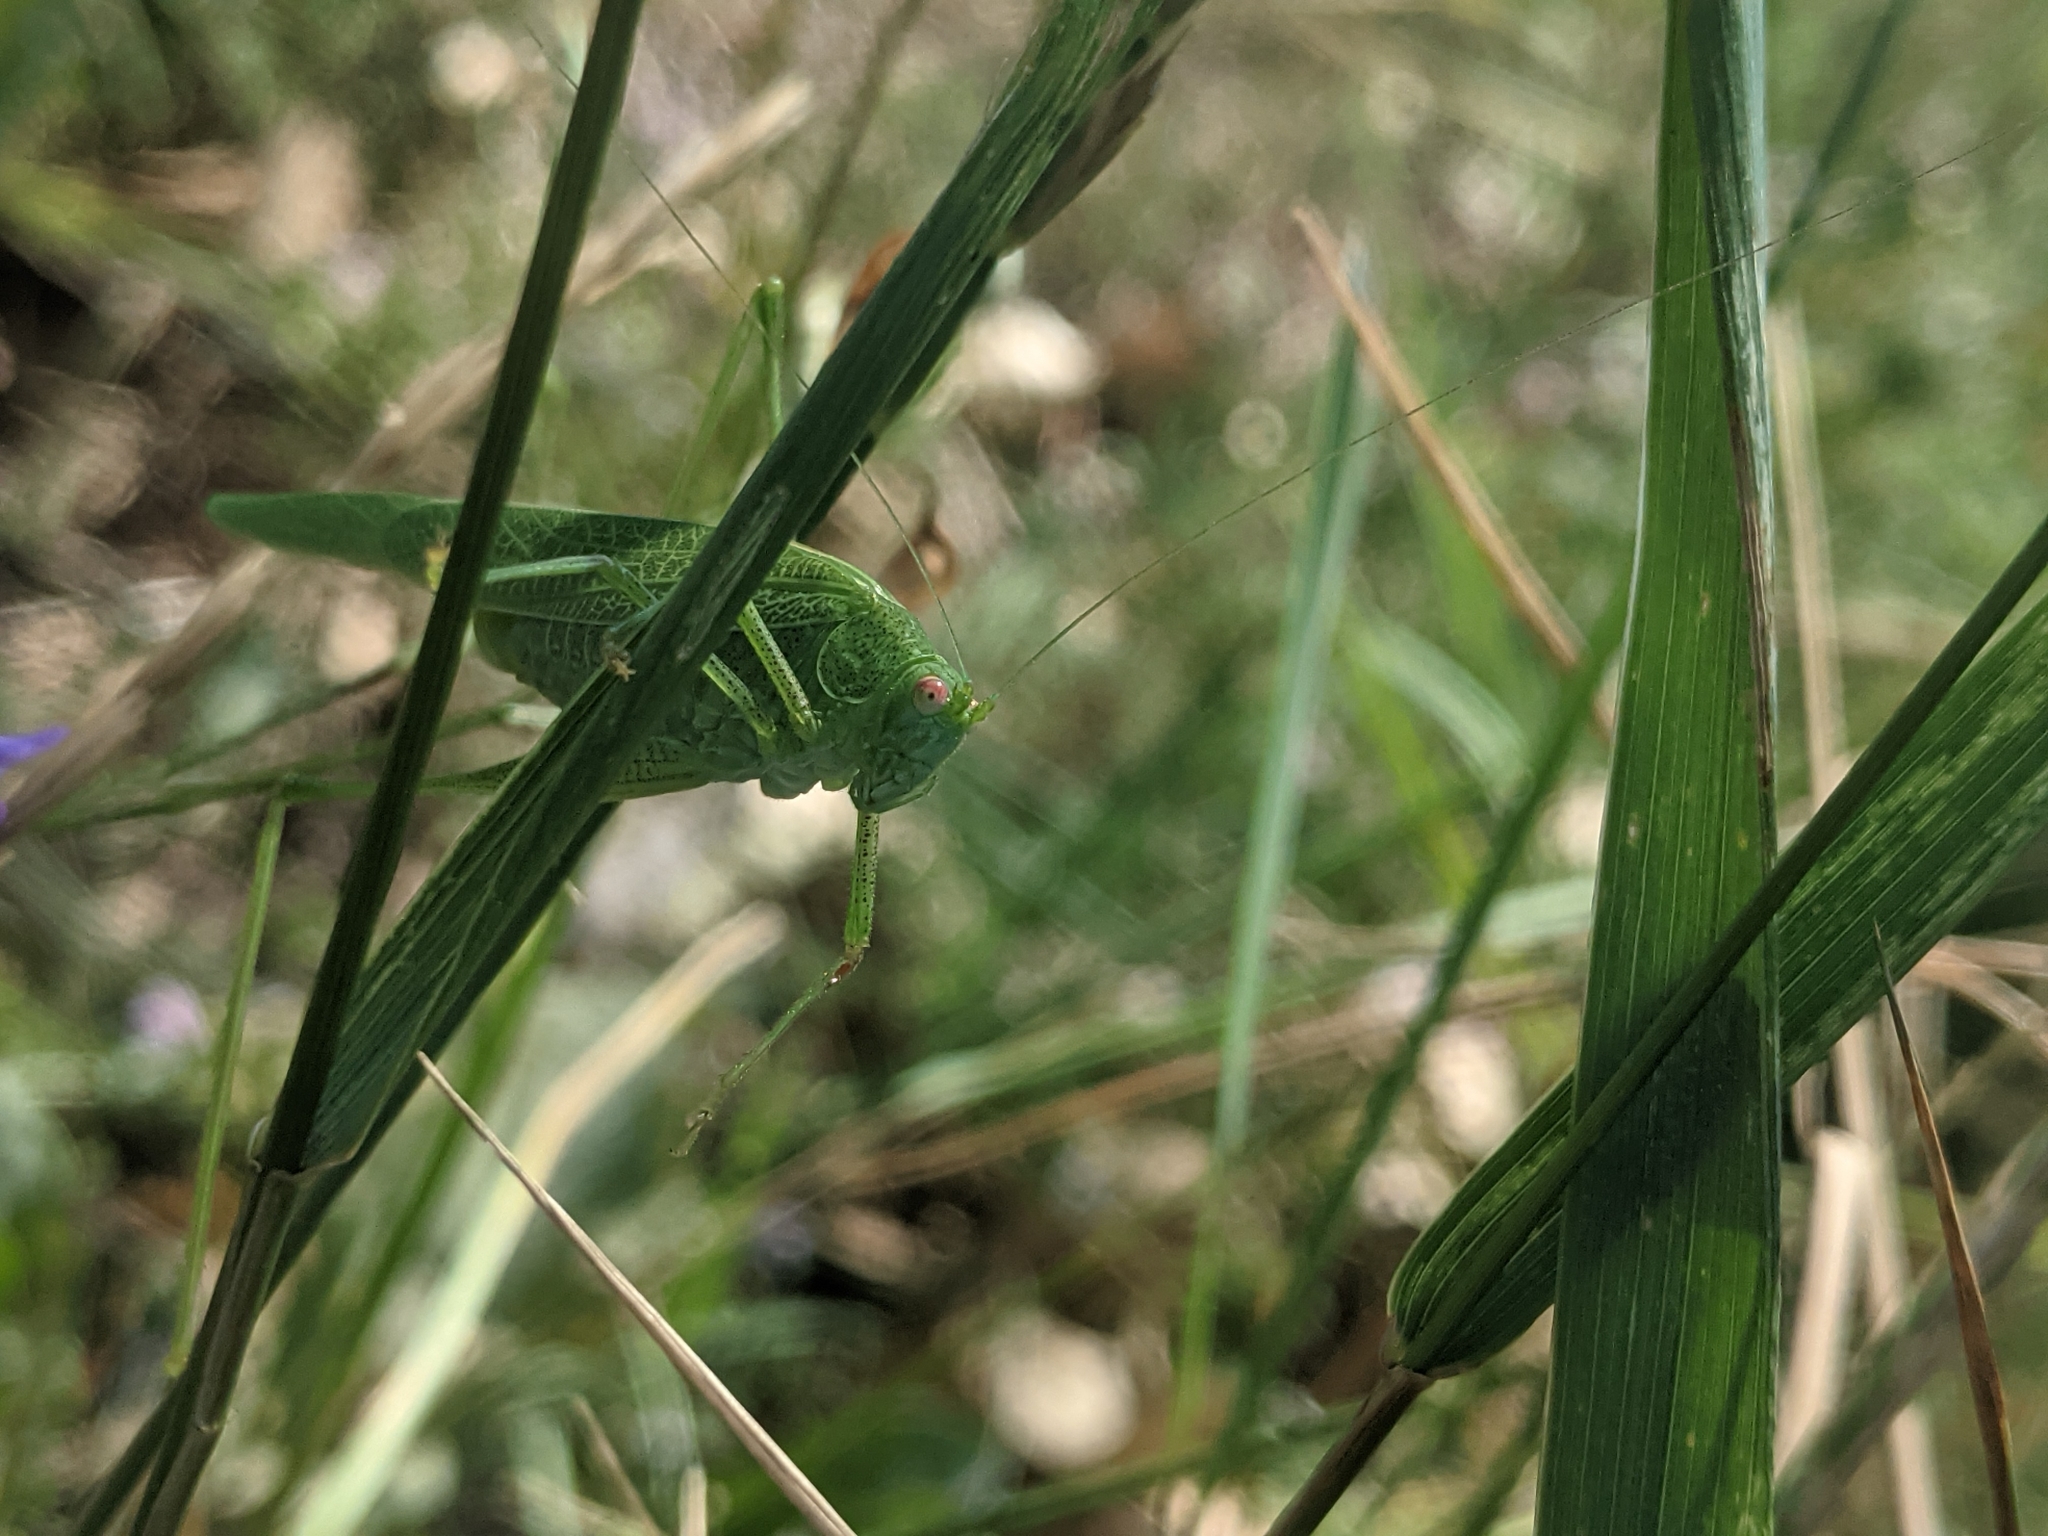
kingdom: Animalia
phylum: Arthropoda
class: Insecta
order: Orthoptera
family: Tettigoniidae
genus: Phaneroptera
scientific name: Phaneroptera nana
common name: Southern sickle bush-cricket
